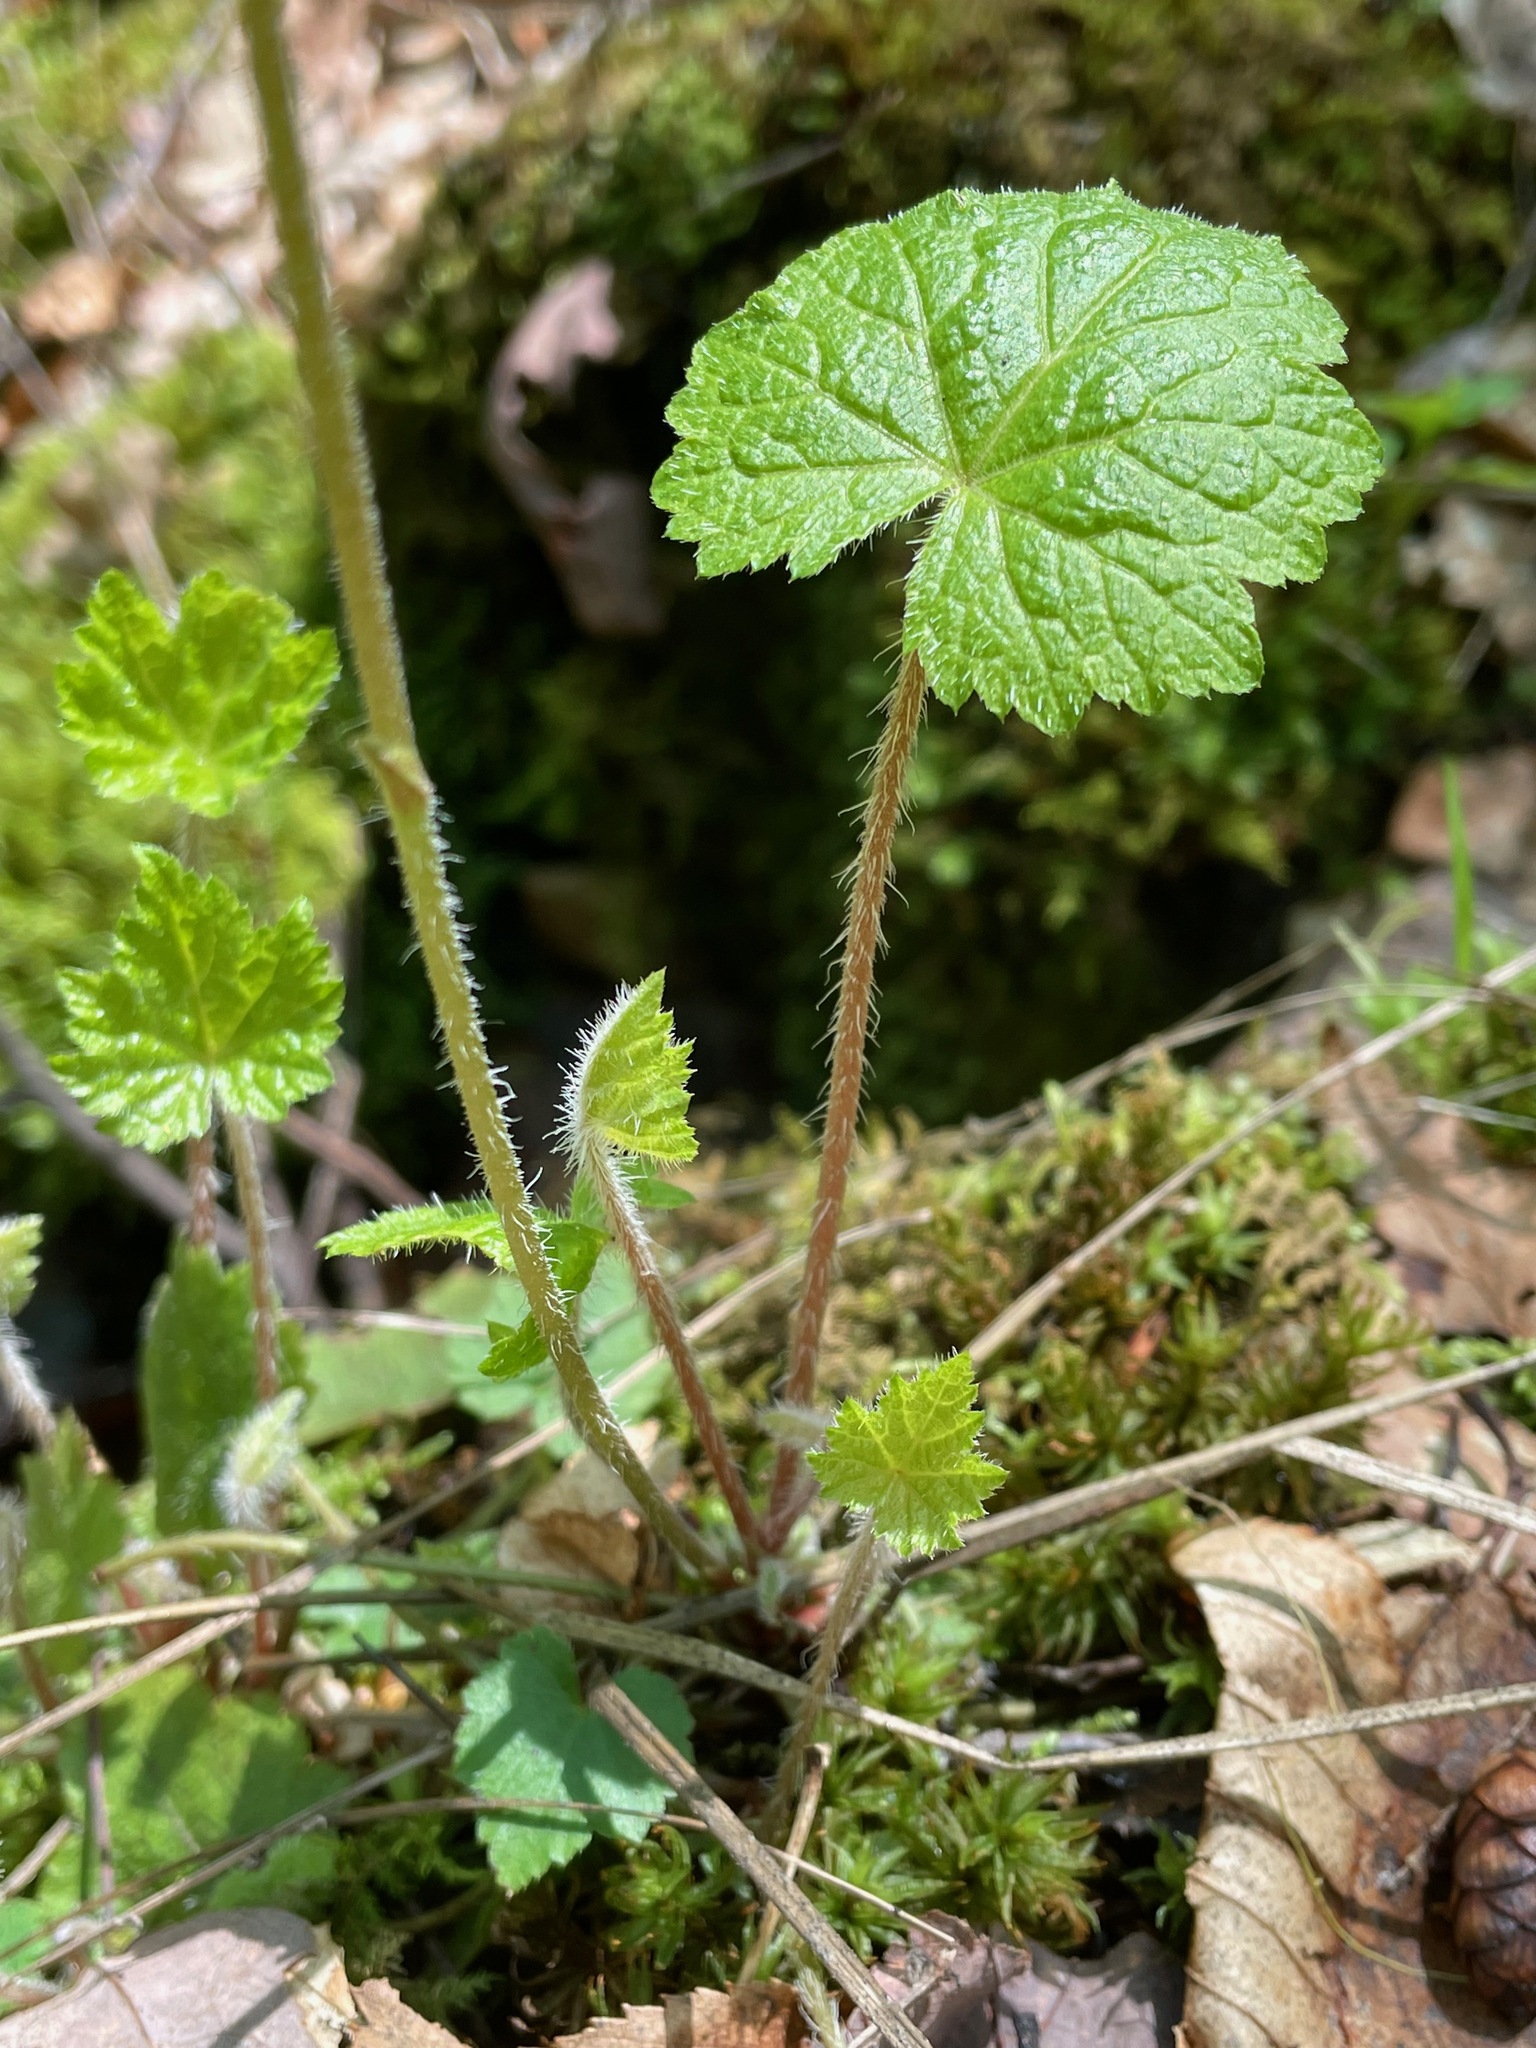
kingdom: Plantae
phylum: Tracheophyta
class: Magnoliopsida
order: Saxifragales
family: Saxifragaceae
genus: Mitella
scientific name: Mitella diphylla
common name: Coolwort
